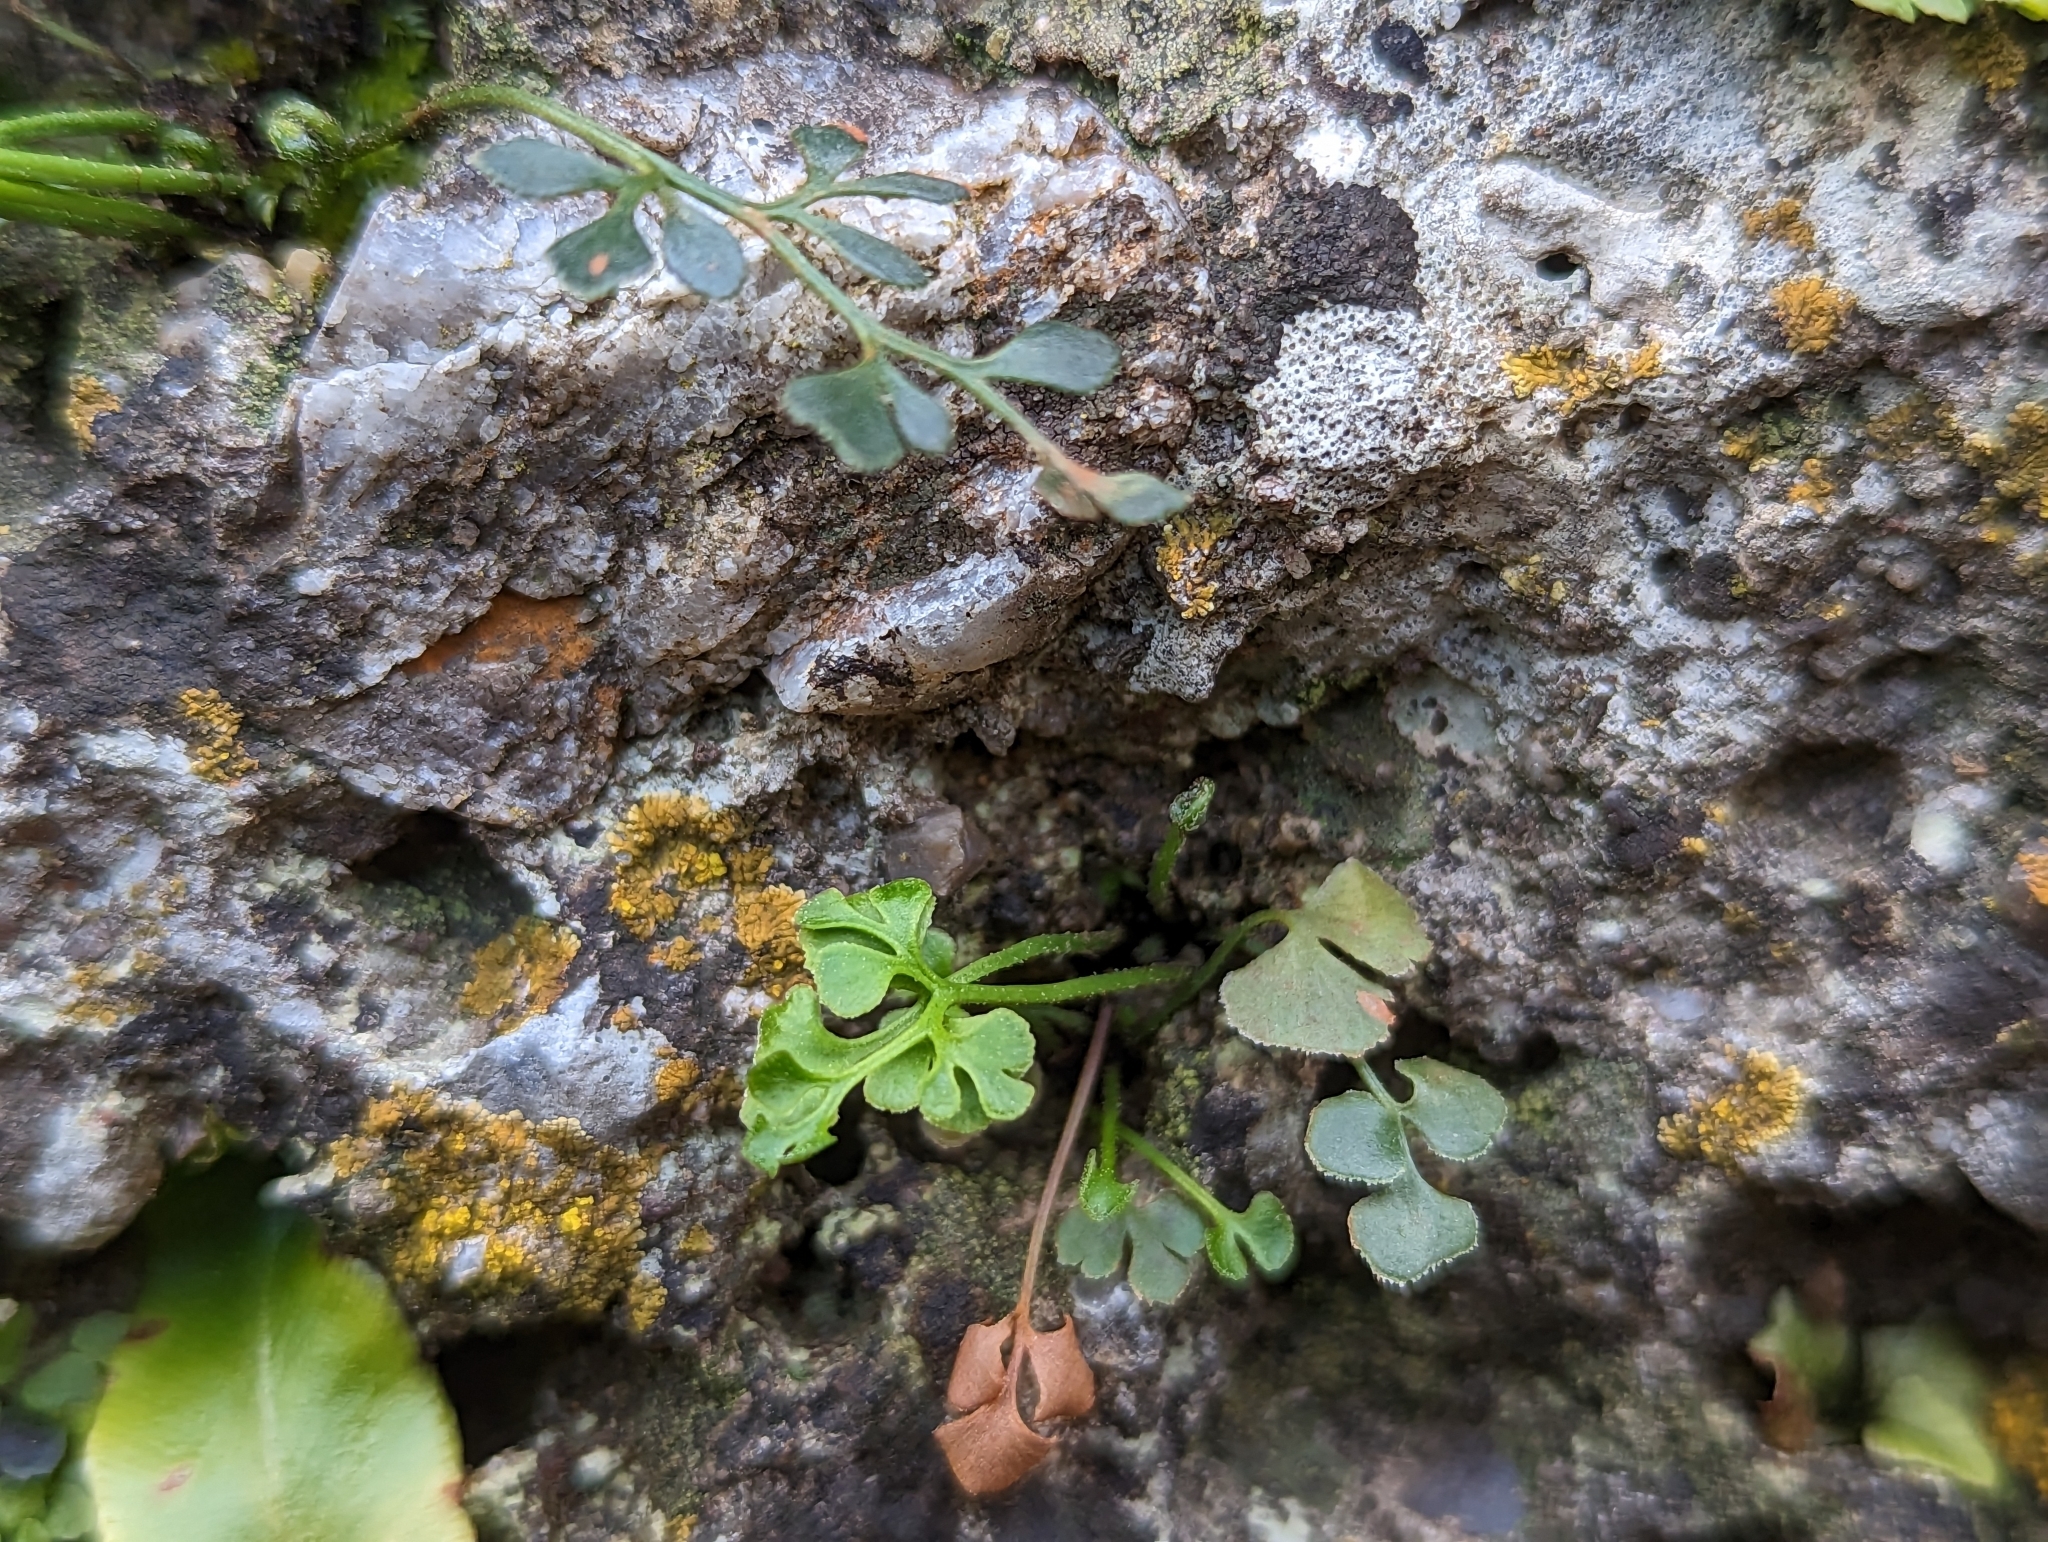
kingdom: Plantae
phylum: Tracheophyta
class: Polypodiopsida
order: Polypodiales
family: Aspleniaceae
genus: Asplenium
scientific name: Asplenium ruta-muraria
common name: Wall-rue
